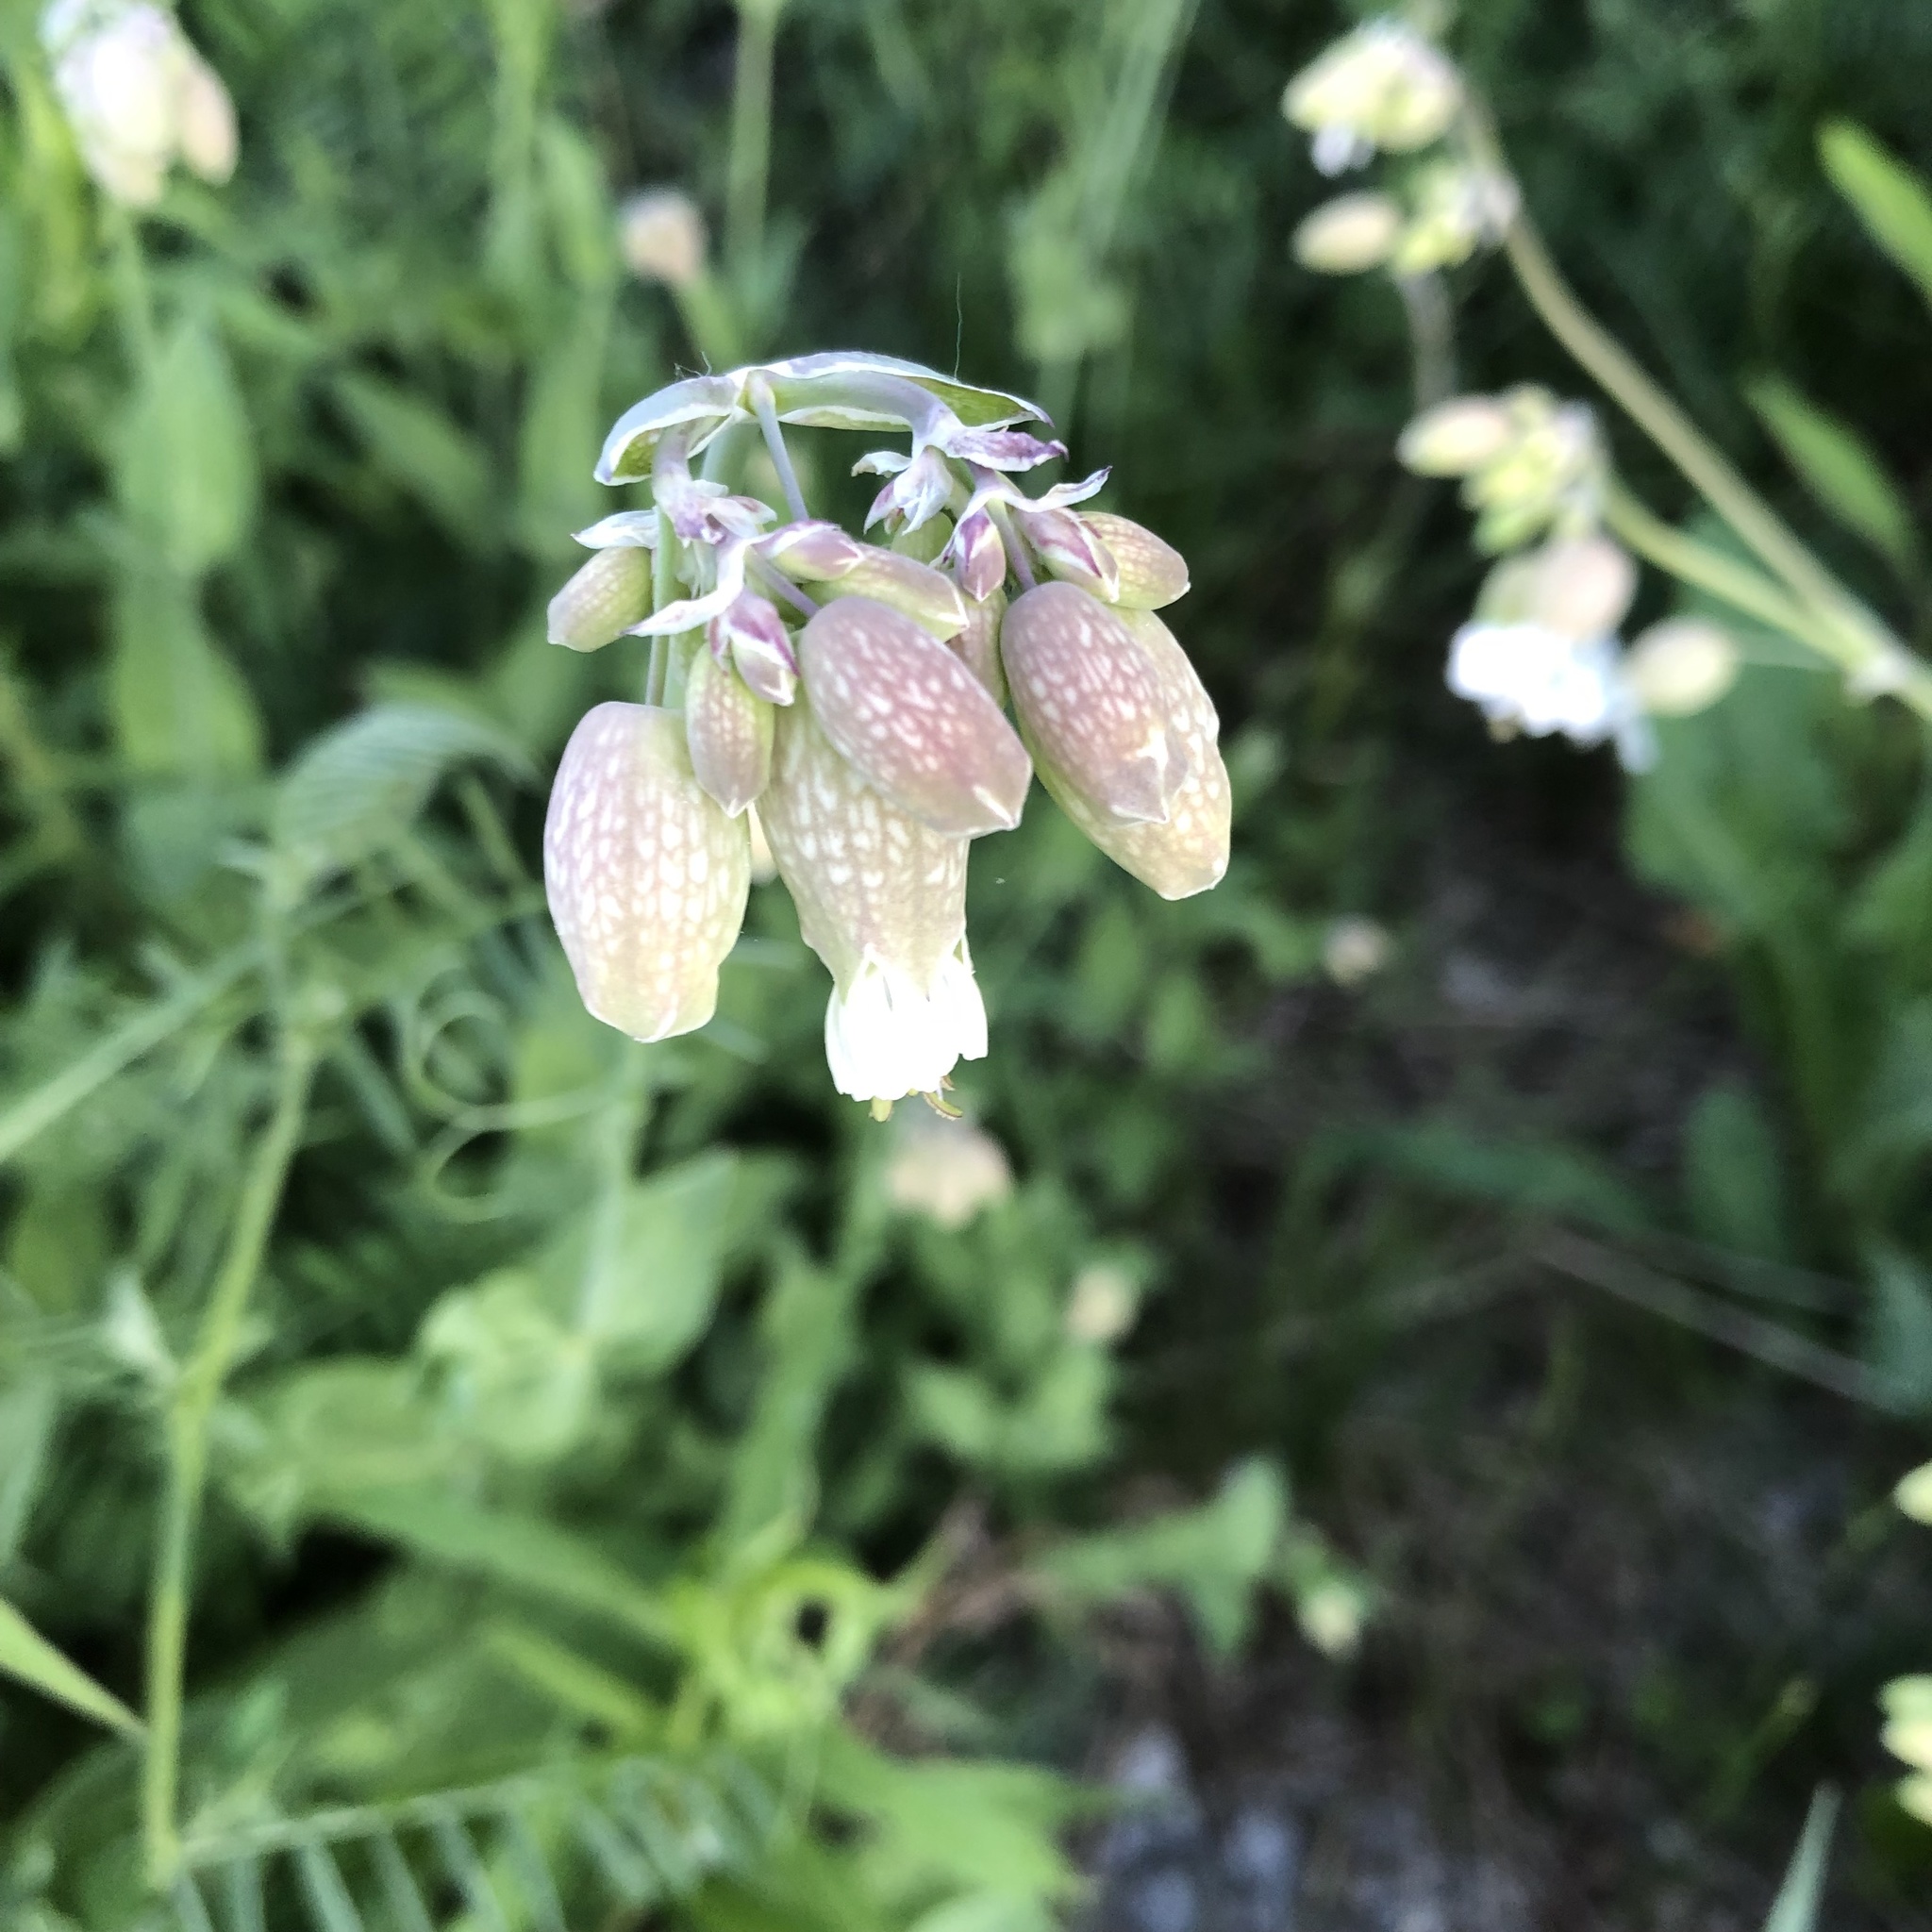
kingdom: Plantae
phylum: Tracheophyta
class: Magnoliopsida
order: Caryophyllales
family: Caryophyllaceae
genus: Silene
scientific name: Silene vulgaris
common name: Bladder campion
